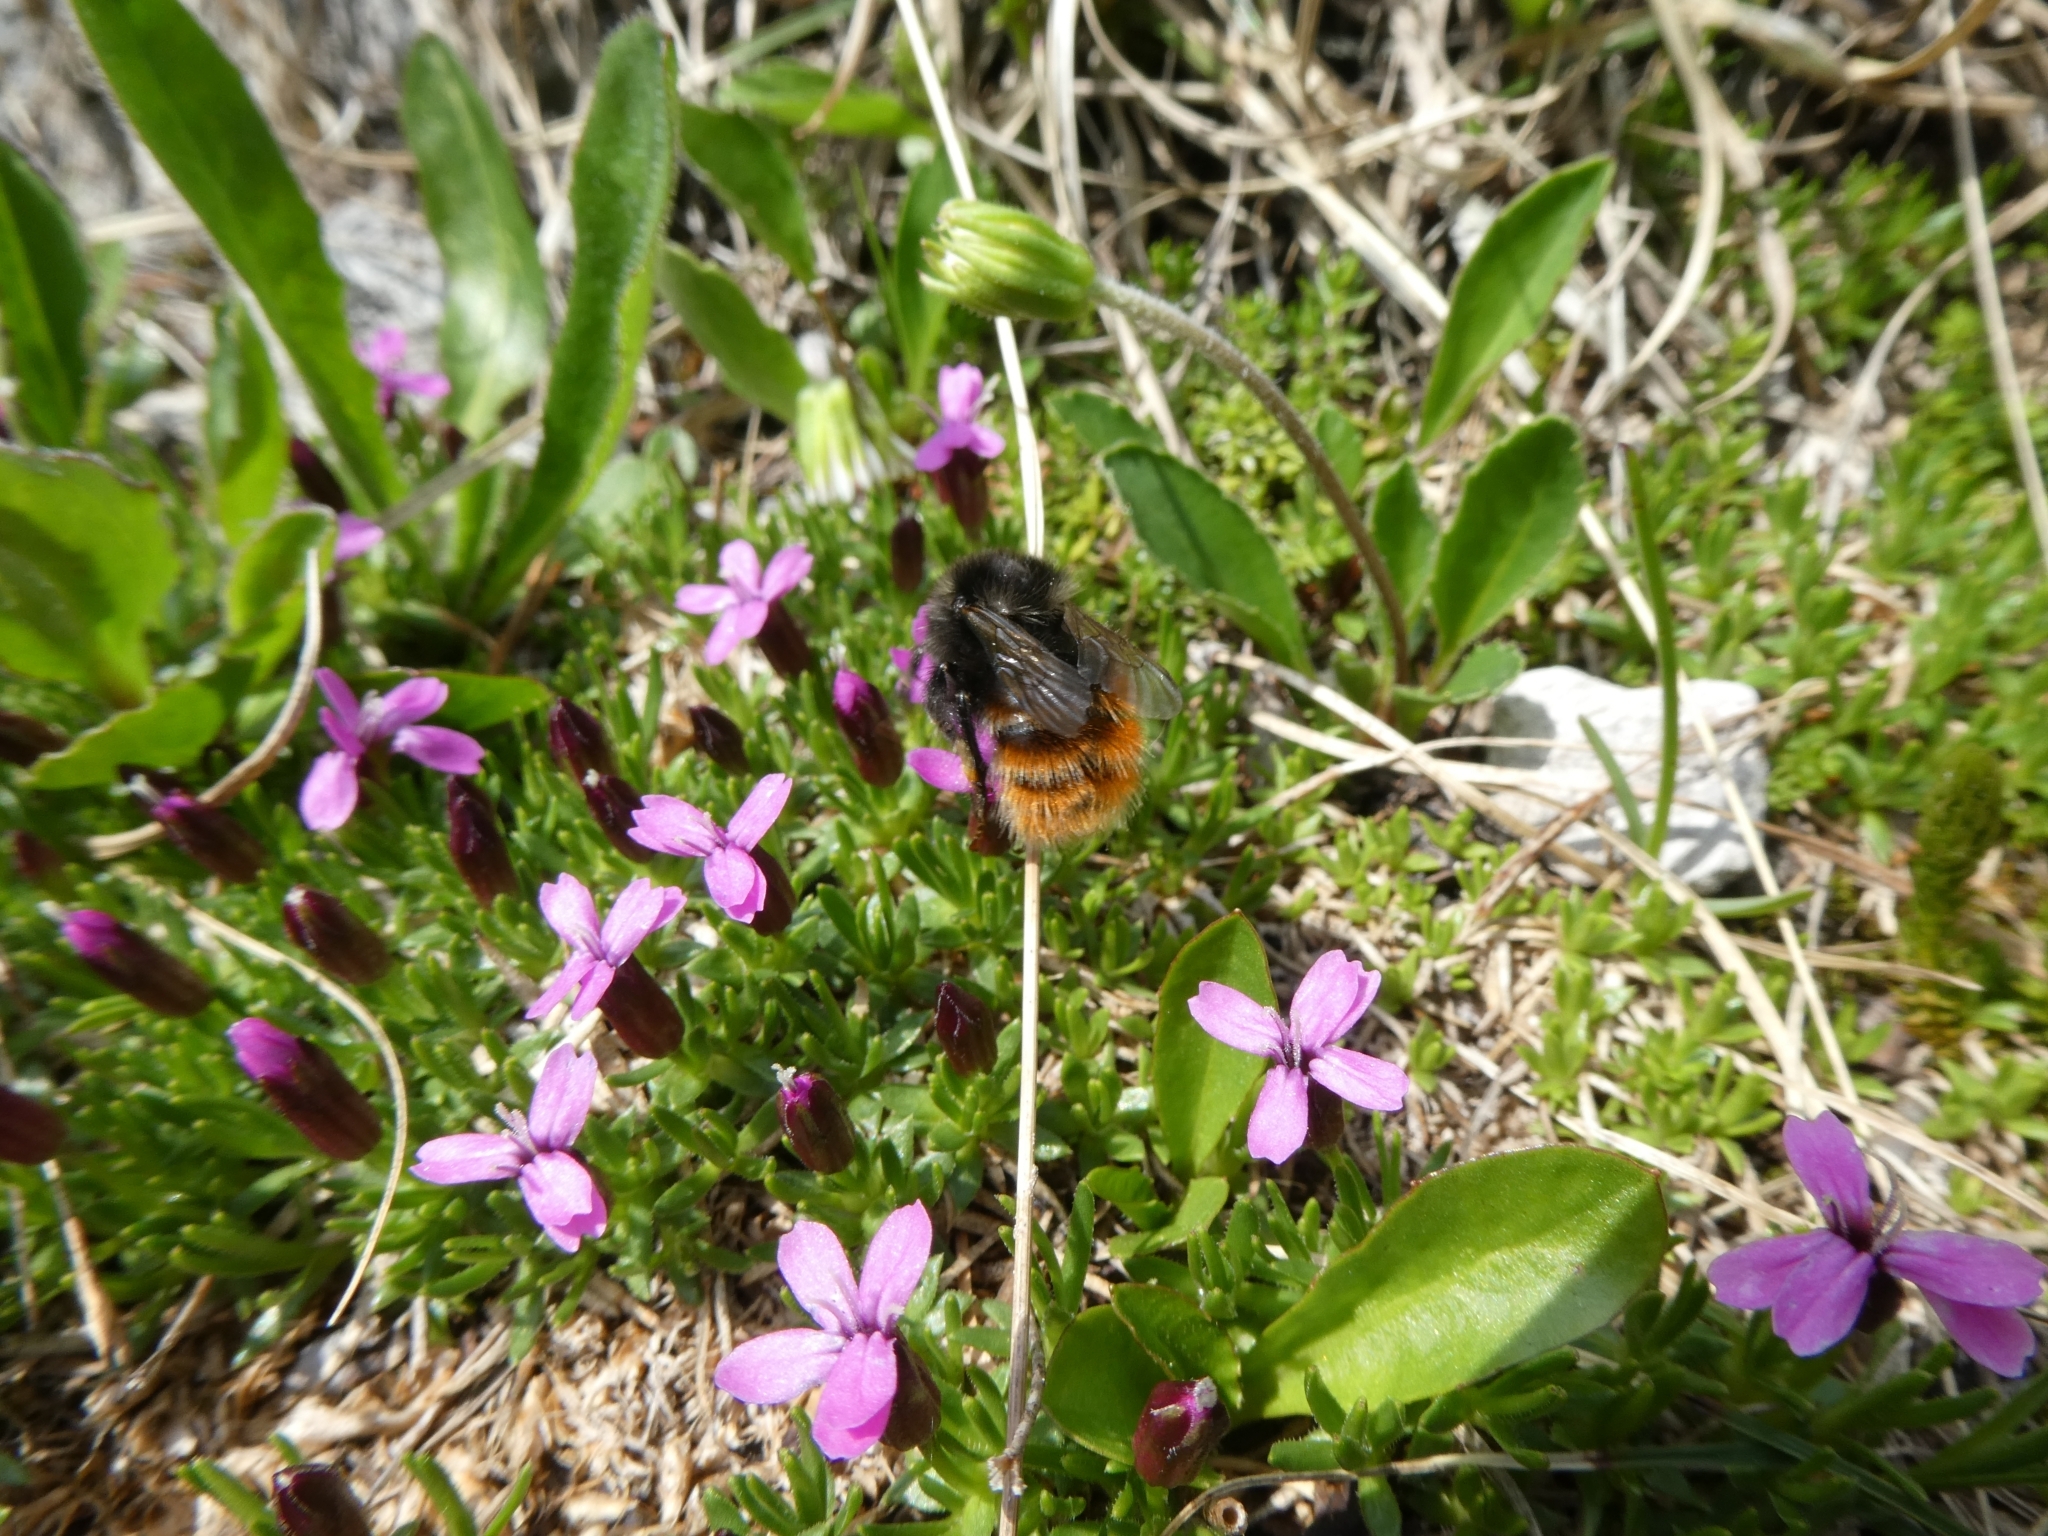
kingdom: Animalia
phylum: Arthropoda
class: Insecta
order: Hymenoptera
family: Apidae
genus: Bombus
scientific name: Bombus monticola
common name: Bilberry humble-bee
